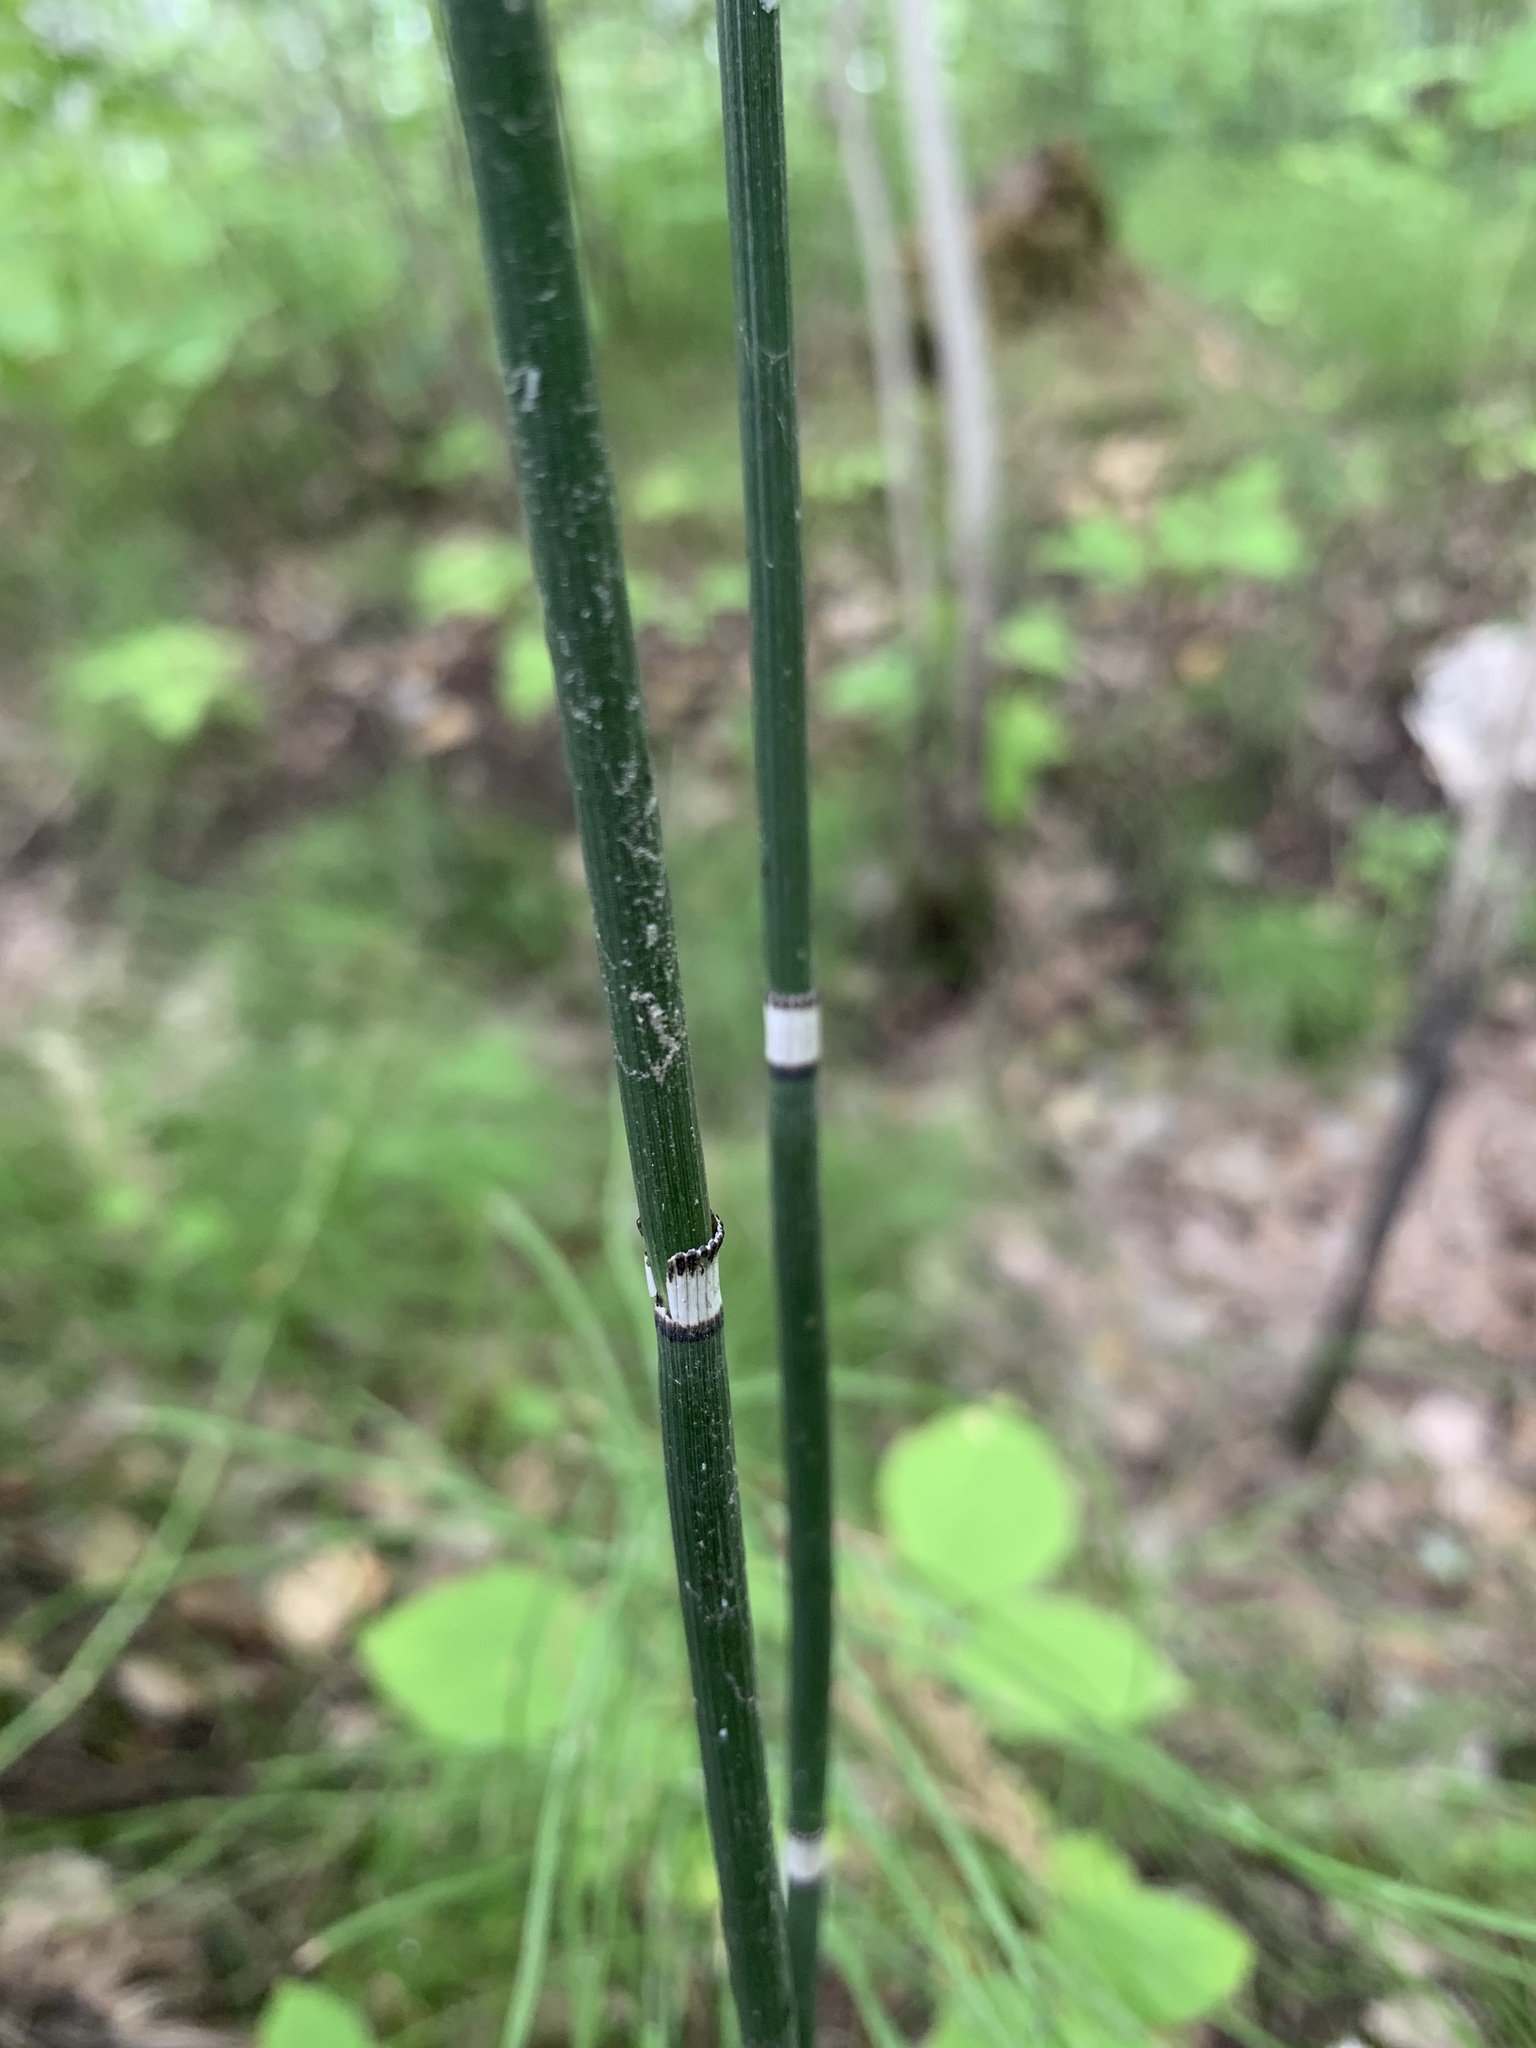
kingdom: Plantae
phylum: Tracheophyta
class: Polypodiopsida
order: Equisetales
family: Equisetaceae
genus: Equisetum
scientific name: Equisetum hyemale
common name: Rough horsetail
